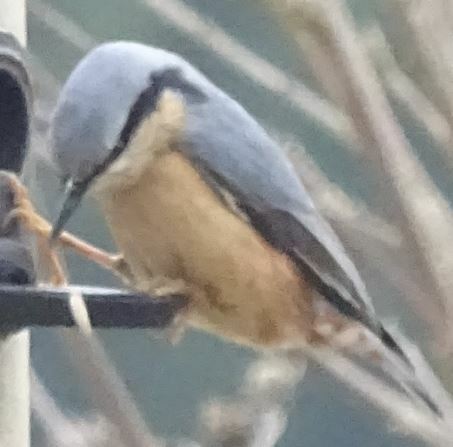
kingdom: Animalia
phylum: Chordata
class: Aves
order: Passeriformes
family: Sittidae
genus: Sitta
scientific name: Sitta europaea
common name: Eurasian nuthatch
